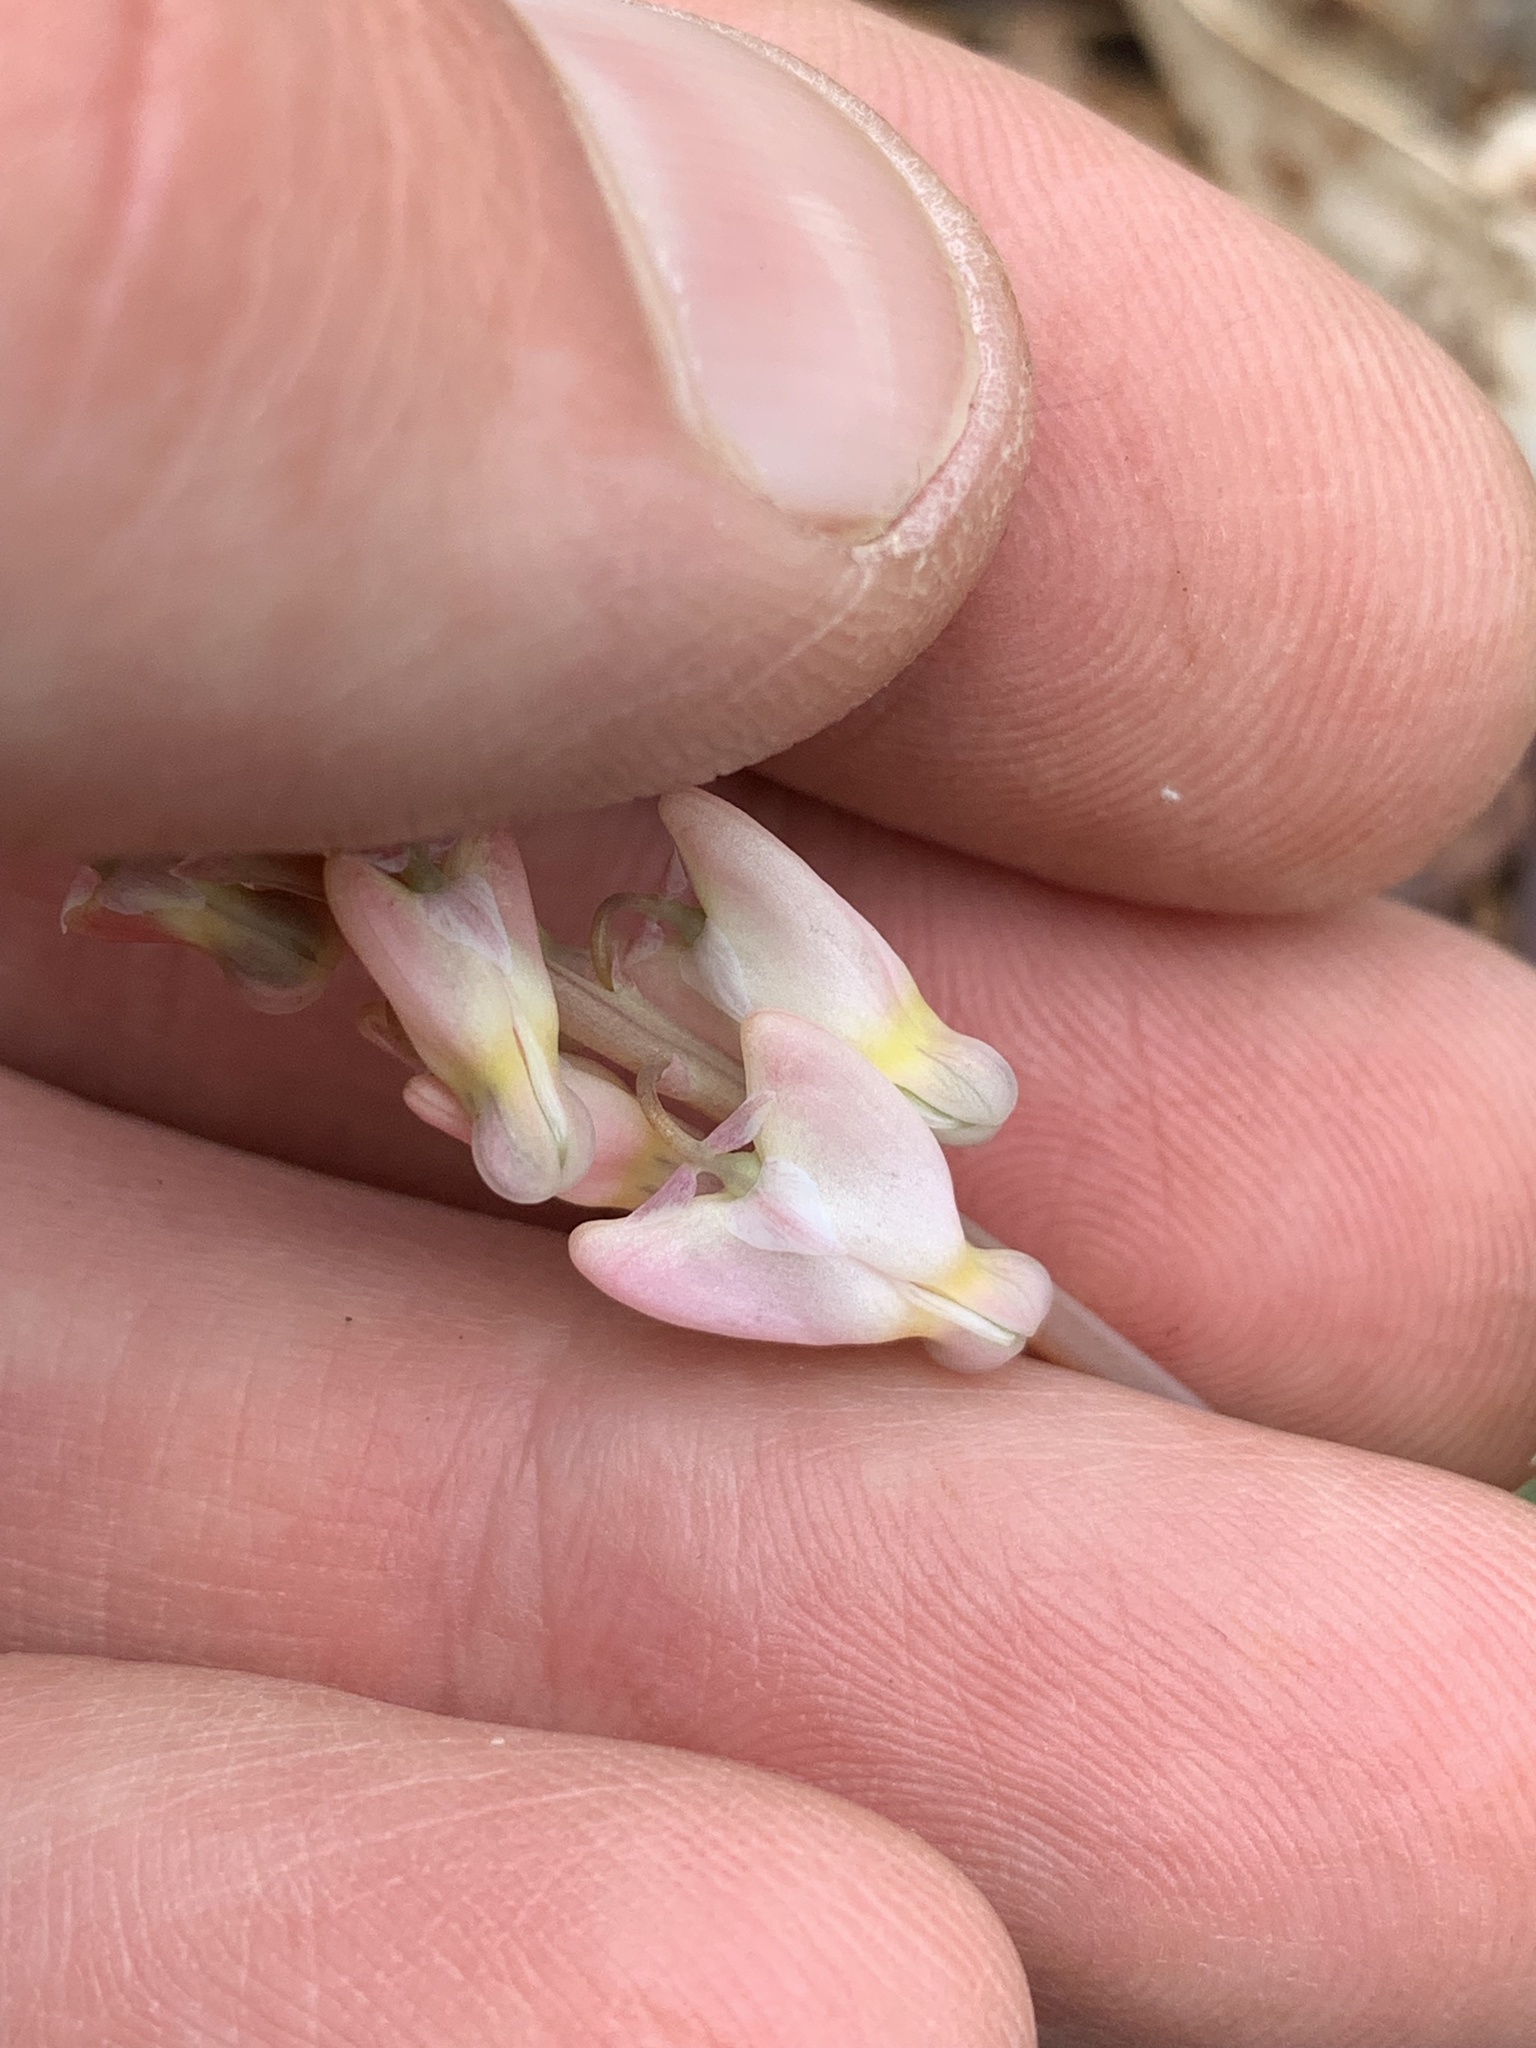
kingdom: Plantae
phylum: Tracheophyta
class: Magnoliopsida
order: Ranunculales
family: Papaveraceae
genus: Dicentra
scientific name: Dicentra cucullaria
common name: Dutchman's breeches
